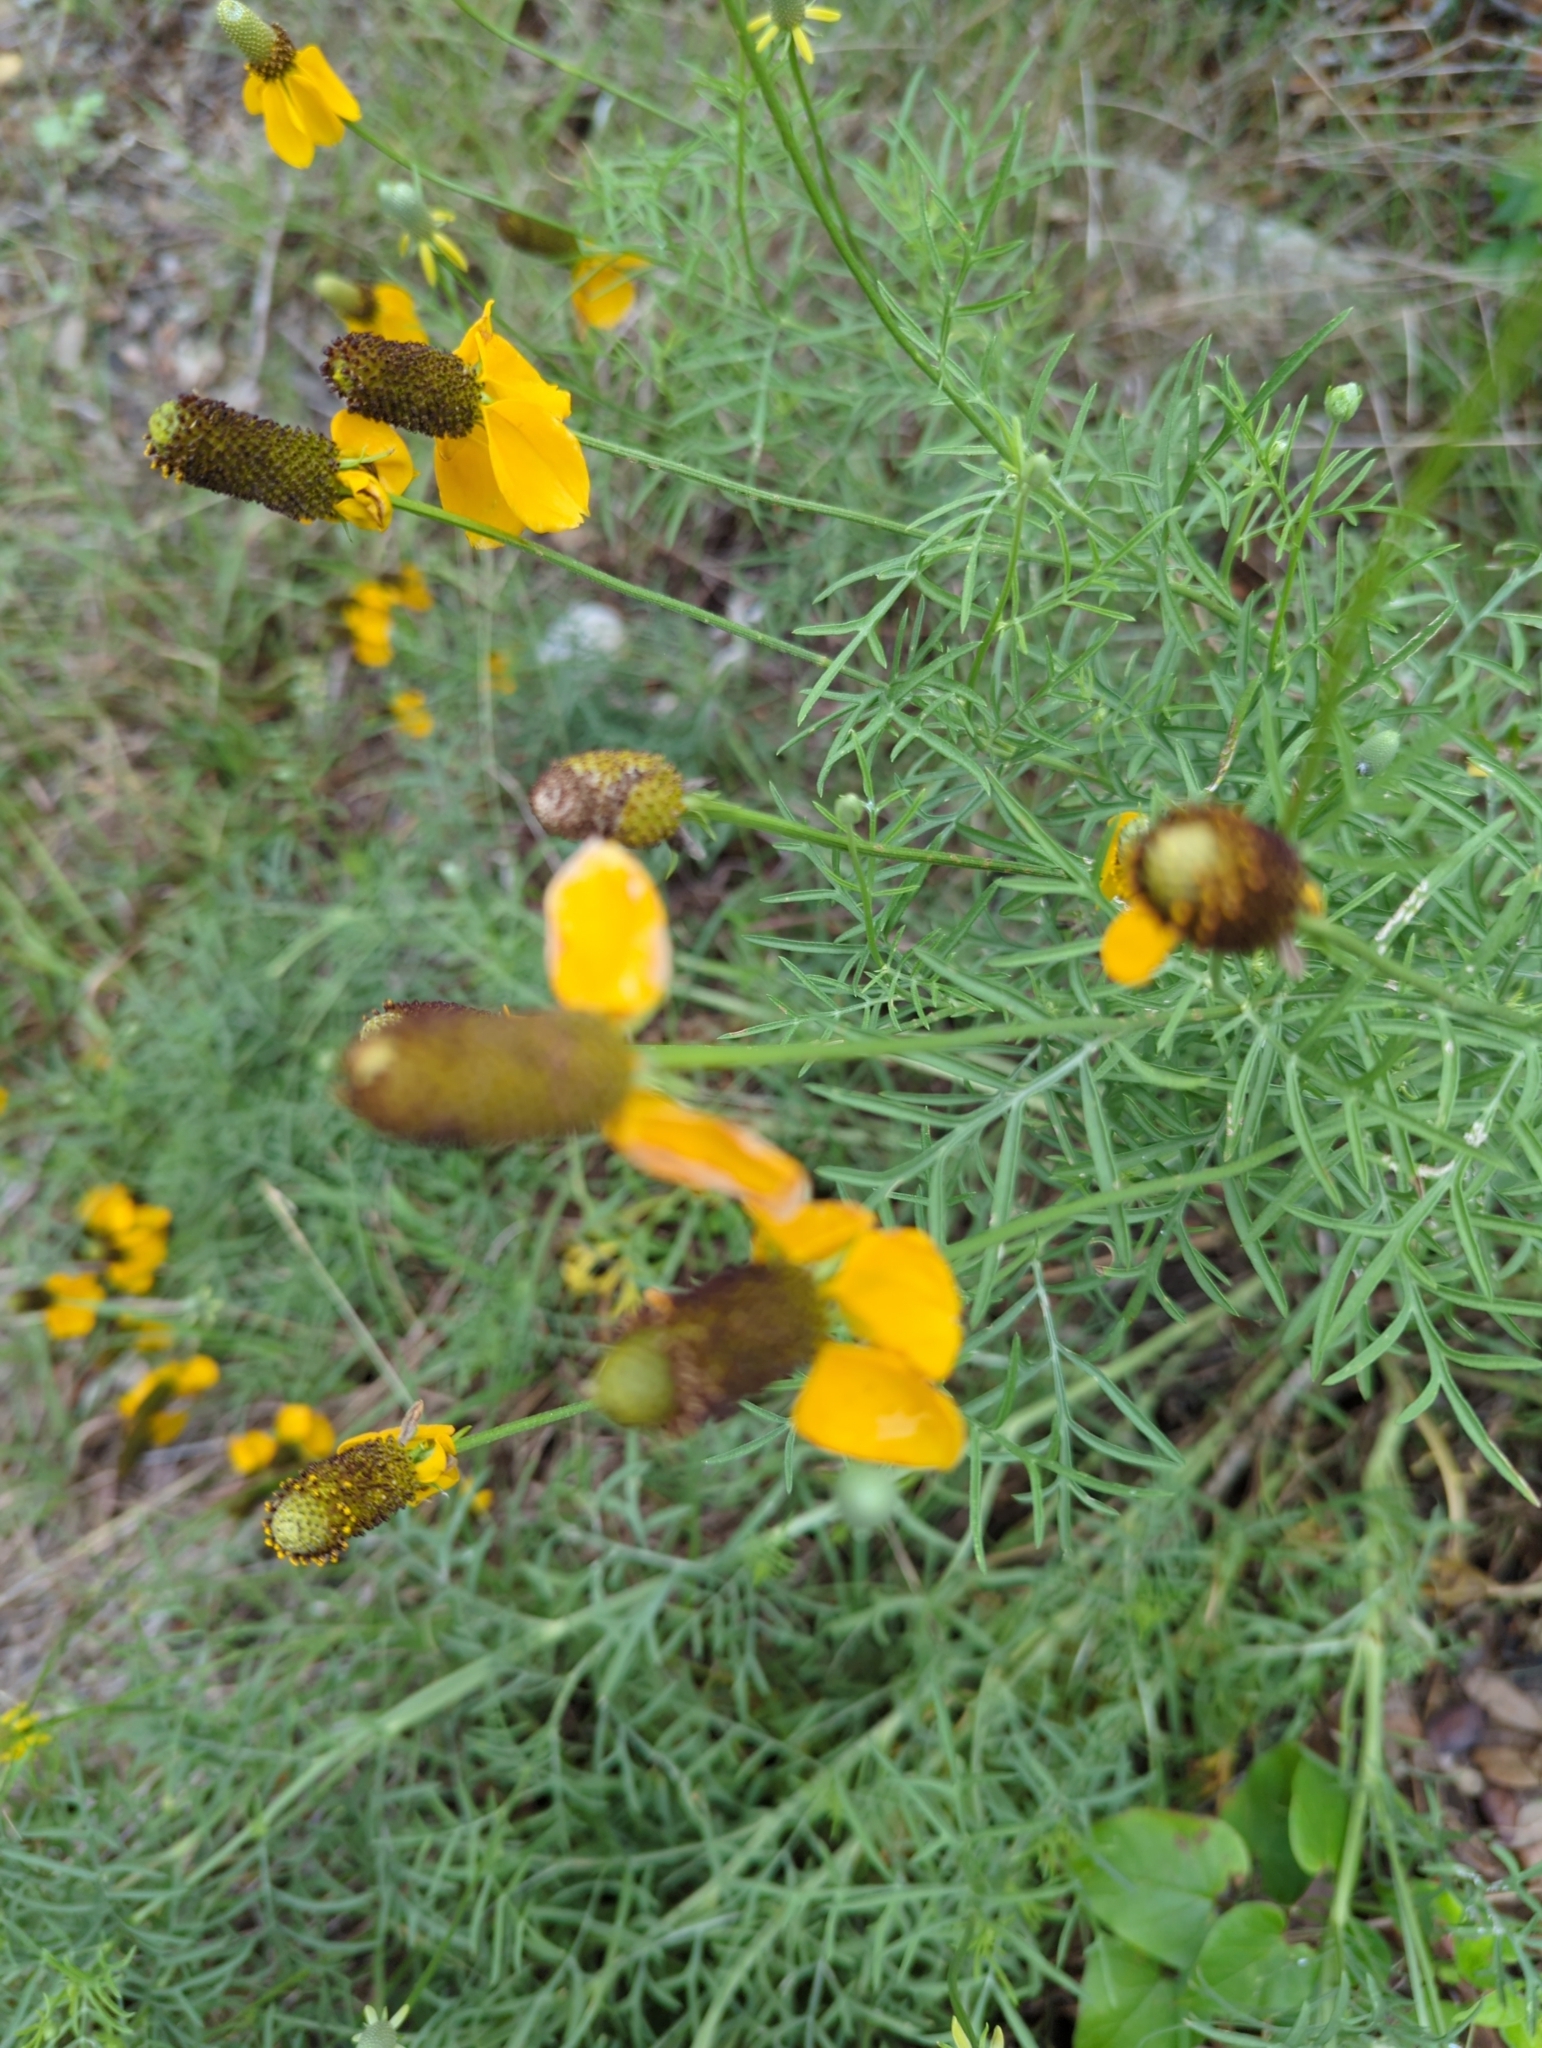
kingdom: Plantae
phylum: Tracheophyta
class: Magnoliopsida
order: Asterales
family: Asteraceae
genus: Ratibida
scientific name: Ratibida columnifera
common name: Prairie coneflower
